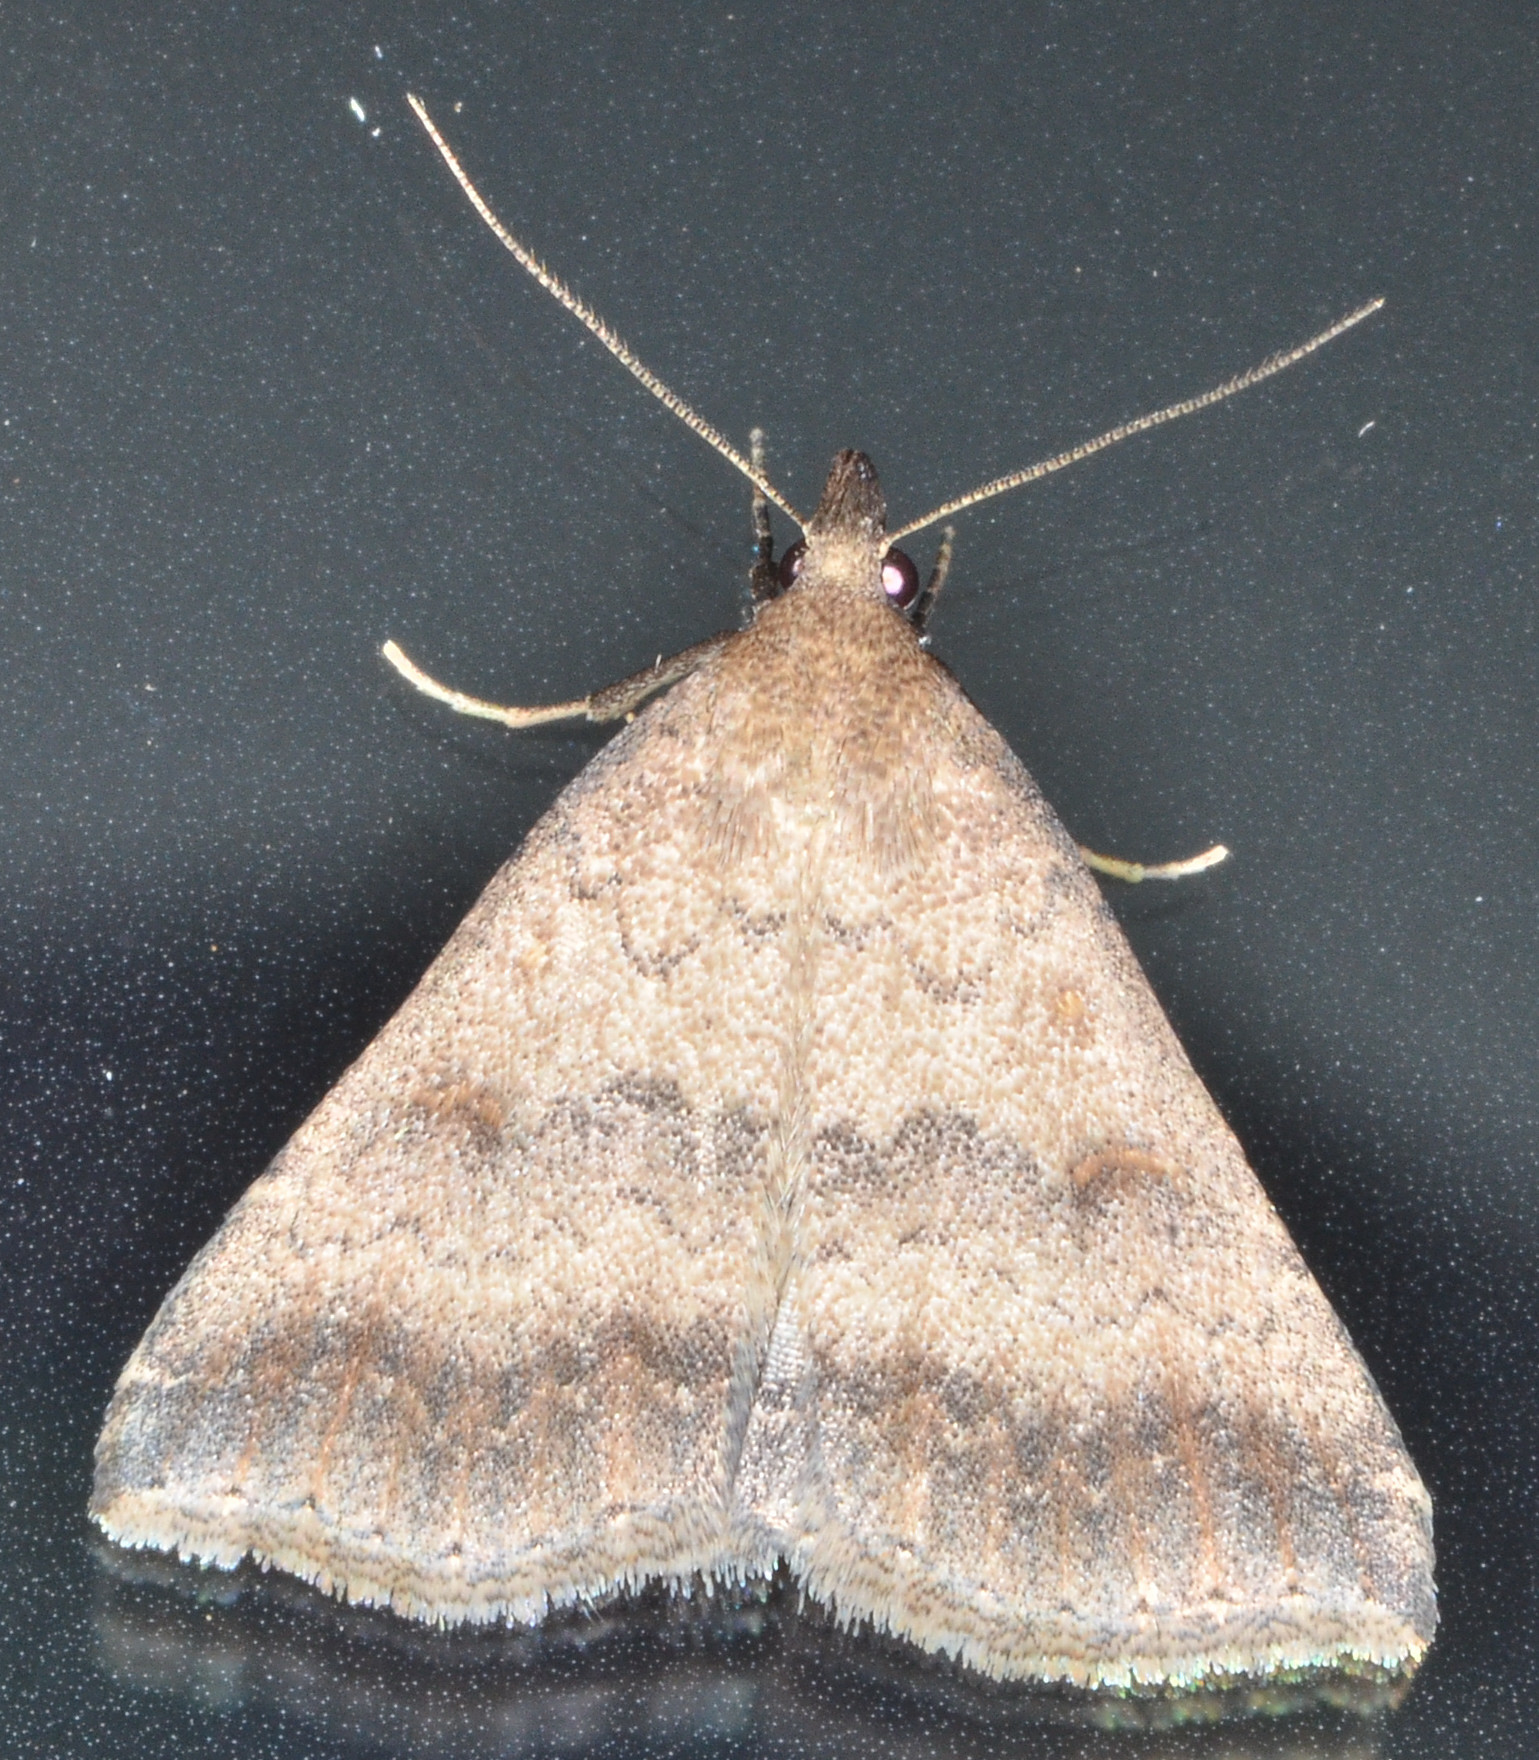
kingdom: Animalia
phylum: Arthropoda
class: Insecta
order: Lepidoptera
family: Erebidae
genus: Tetanolita
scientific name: Tetanolita palligera
